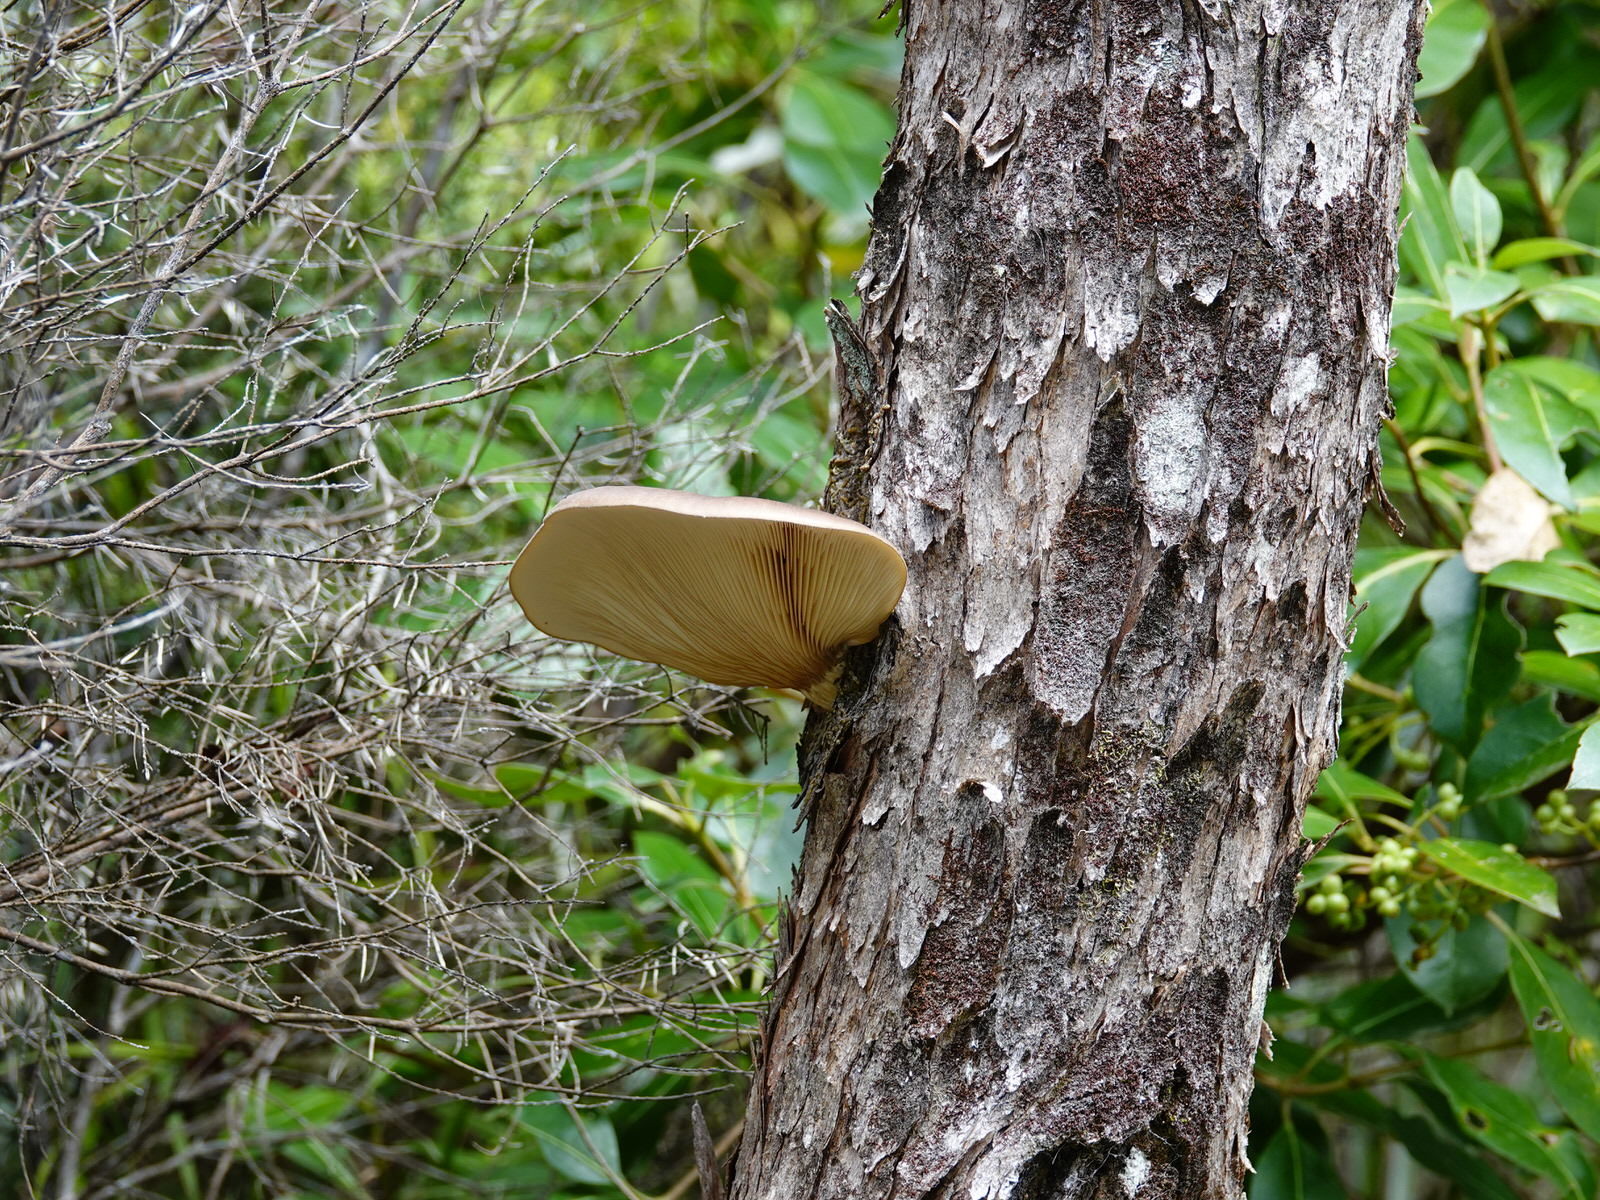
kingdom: Fungi
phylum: Basidiomycota
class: Agaricomycetes
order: Agaricales
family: Pleurotaceae
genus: Pleurotus
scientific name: Pleurotus australis
